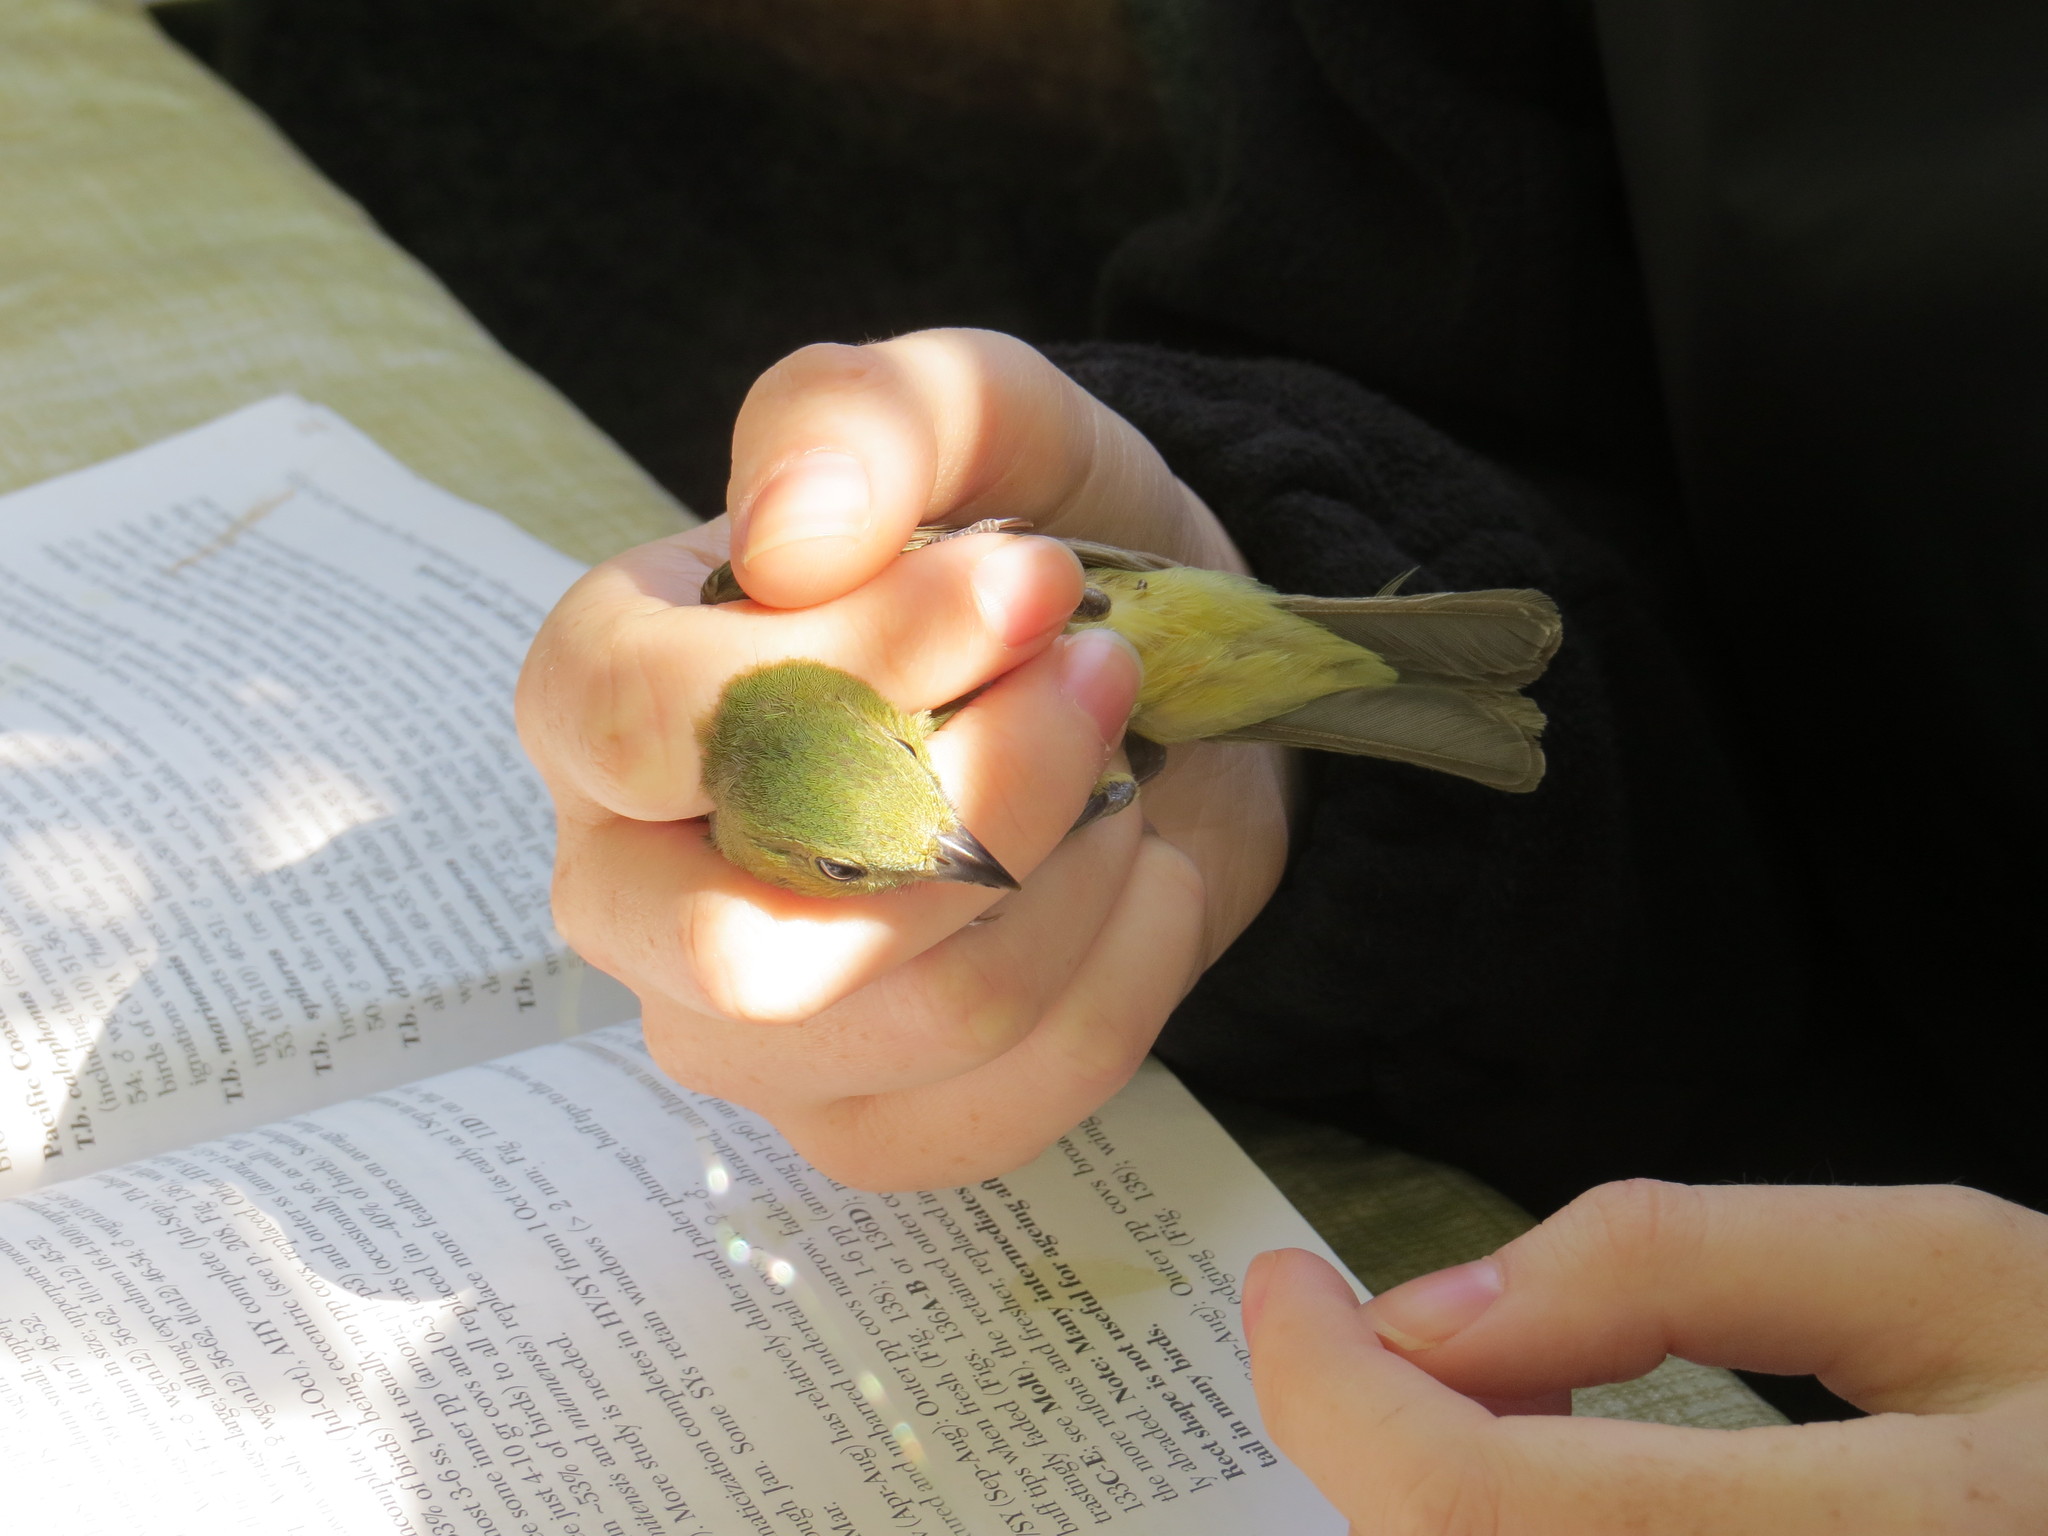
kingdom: Animalia
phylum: Chordata
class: Aves
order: Passeriformes
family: Cardinalidae
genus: Passerina
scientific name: Passerina ciris
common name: Painted bunting
